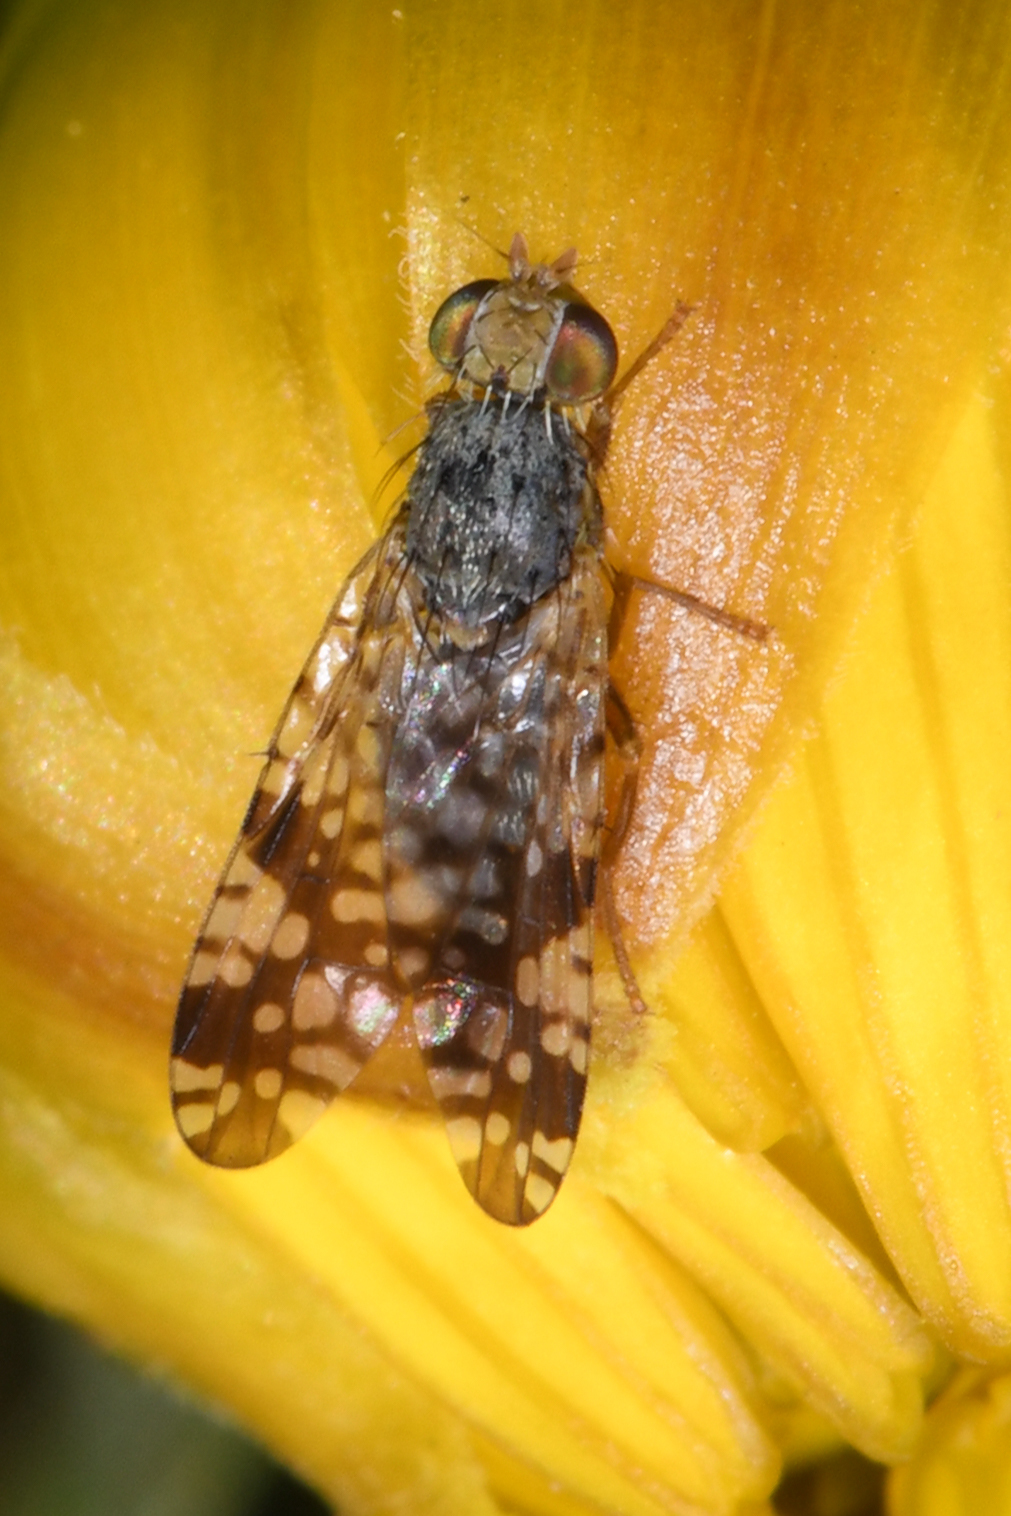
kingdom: Animalia
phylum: Arthropoda
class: Insecta
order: Diptera
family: Tephritidae
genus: Neotephritis
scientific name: Neotephritis finalis
